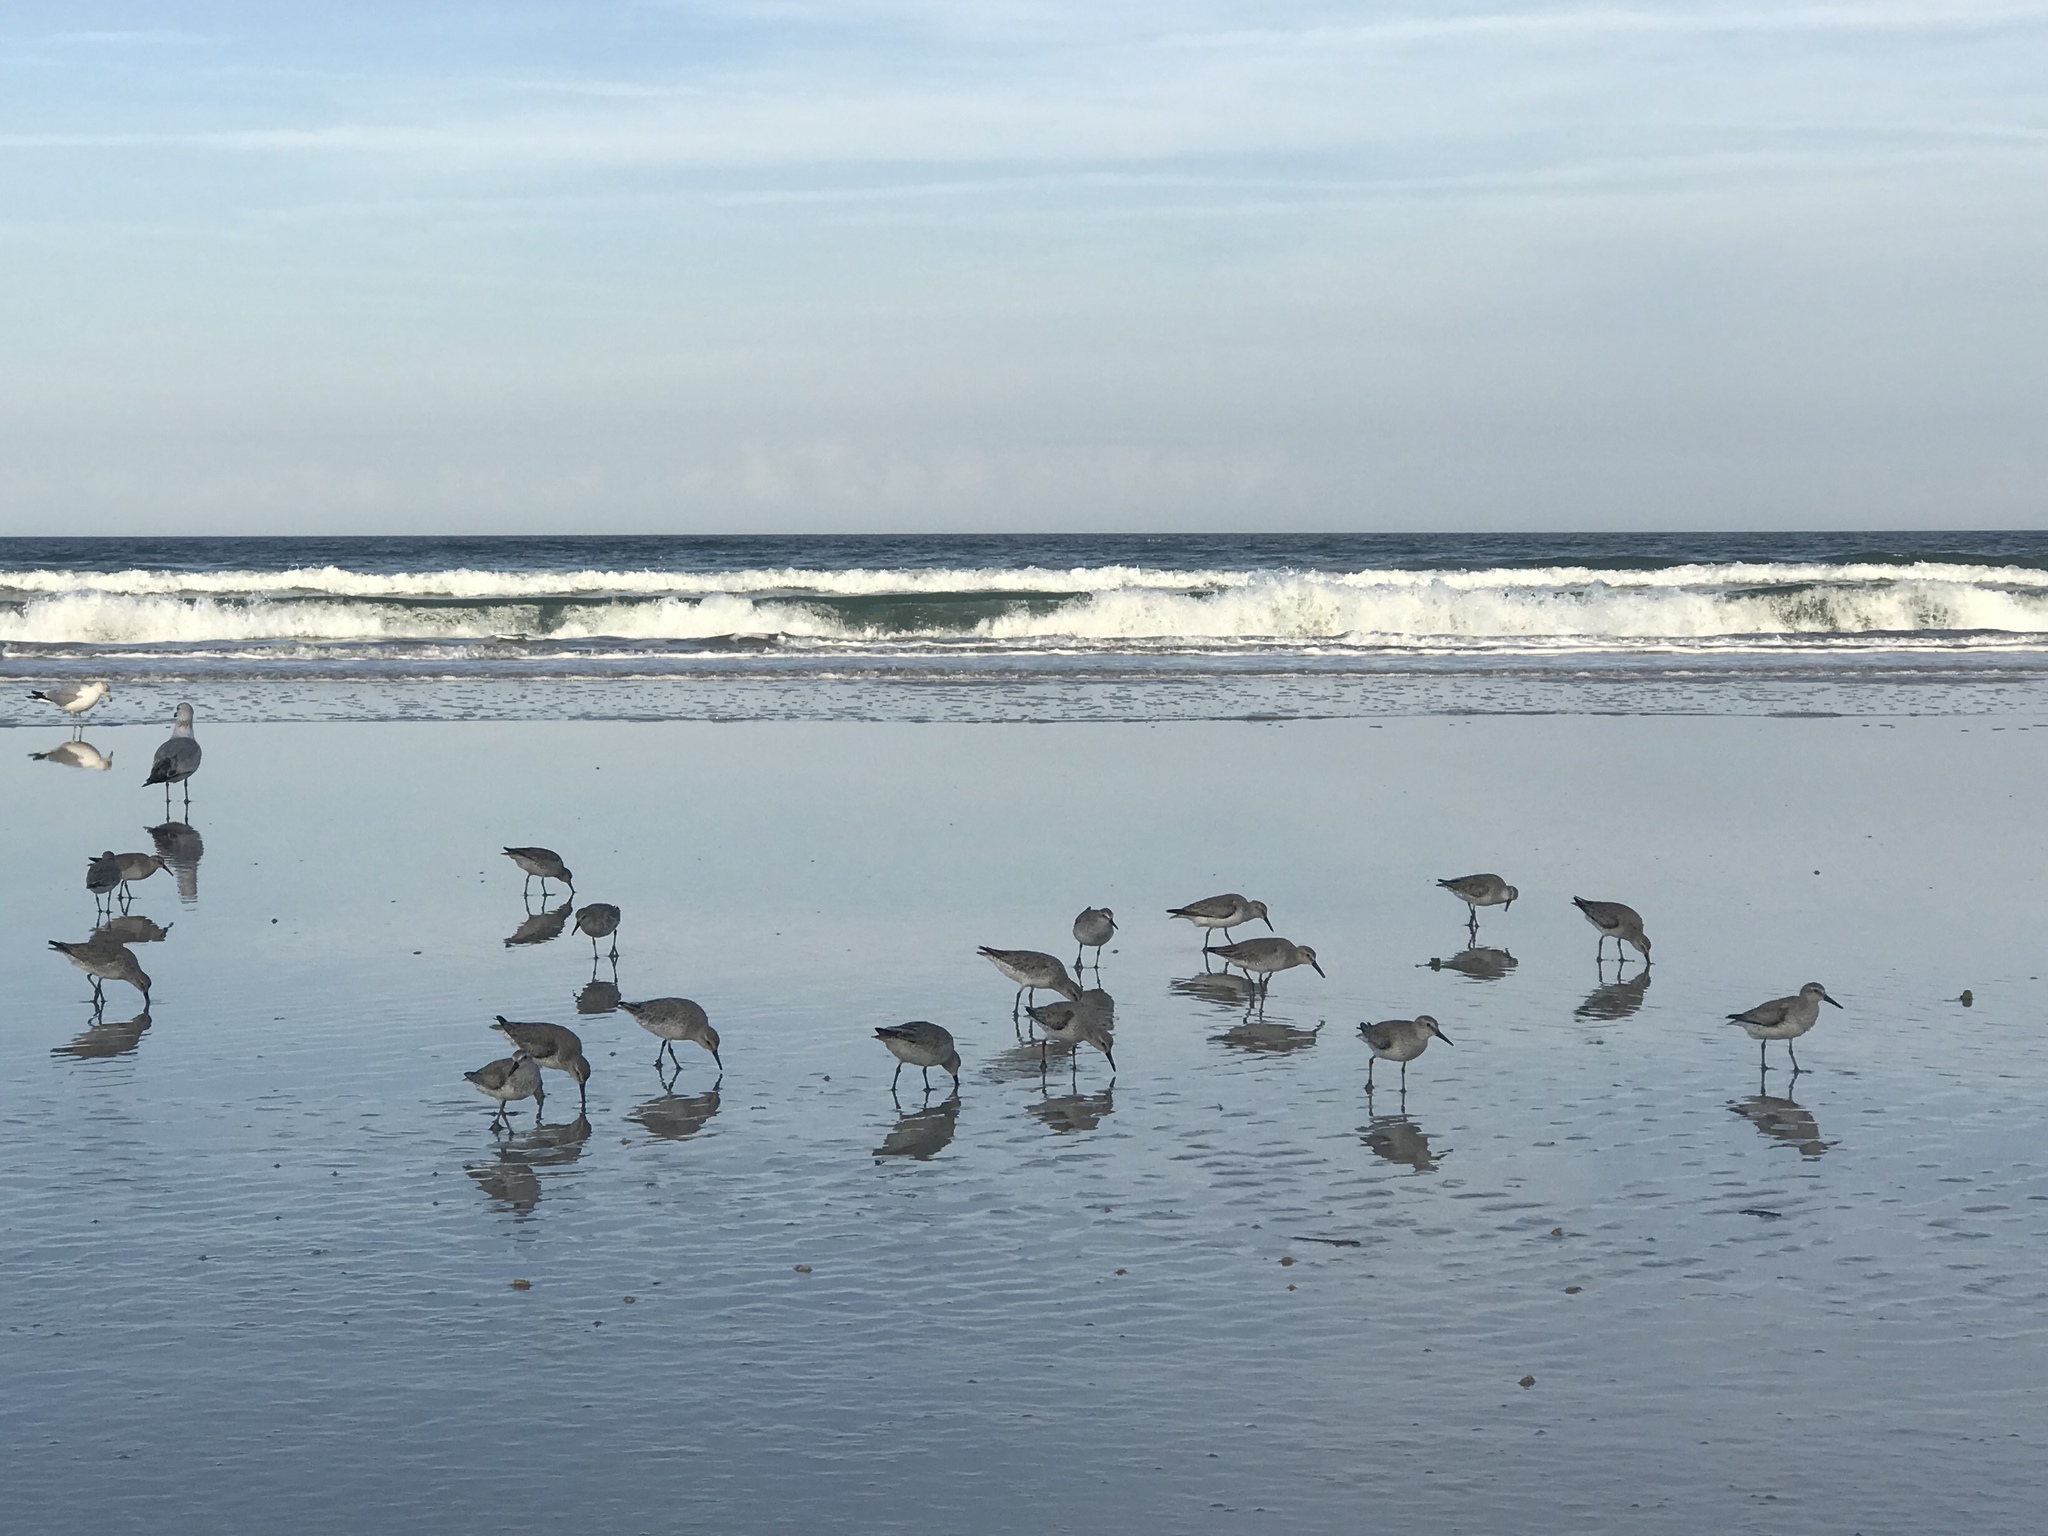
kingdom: Animalia
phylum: Chordata
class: Aves
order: Charadriiformes
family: Scolopacidae
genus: Calidris
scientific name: Calidris canutus
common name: Red knot
